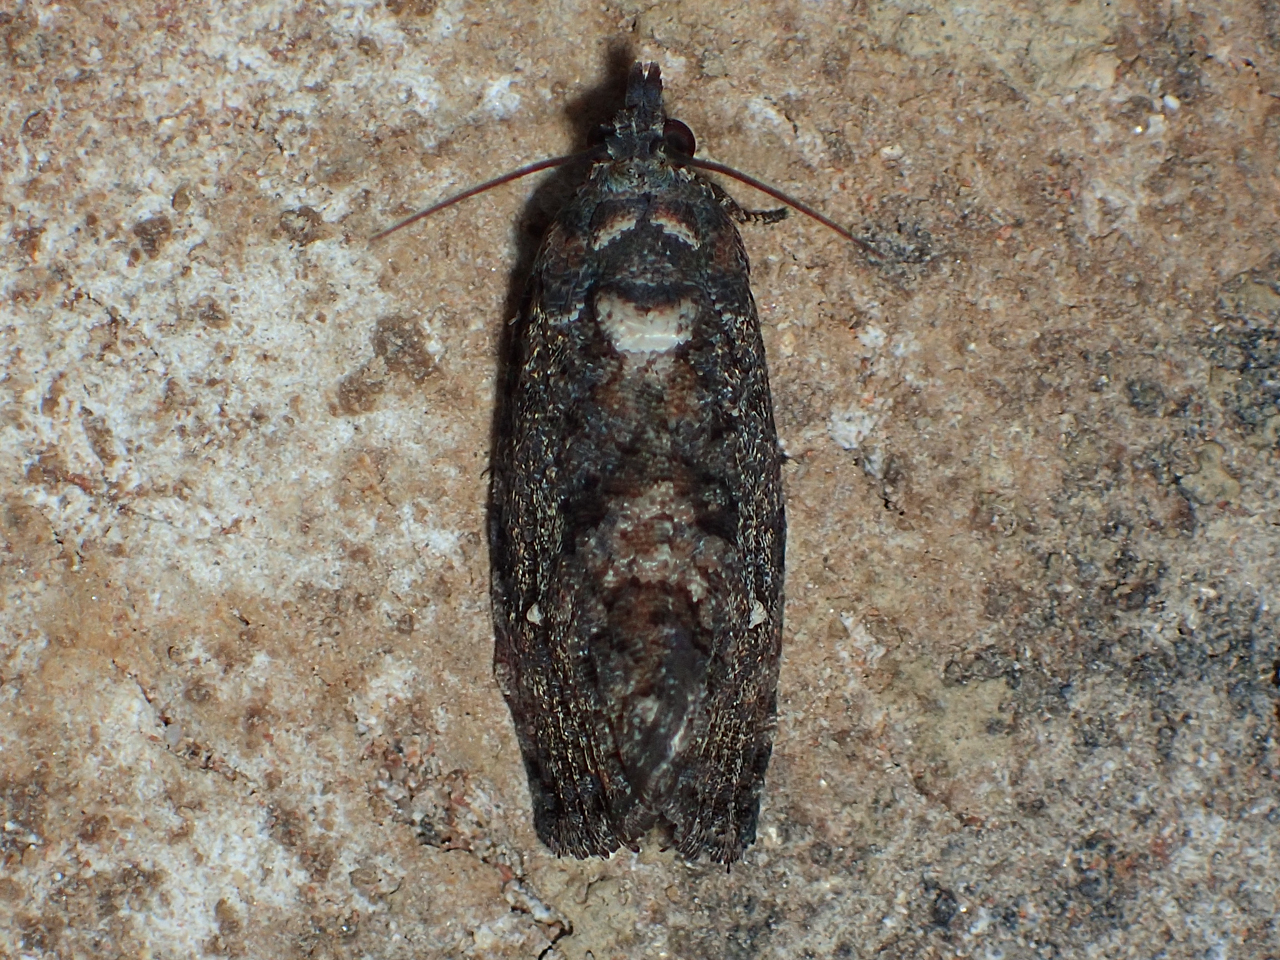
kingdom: Animalia
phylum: Arthropoda
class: Insecta
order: Lepidoptera
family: Tortricidae
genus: Gymnandrosoma
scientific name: Gymnandrosoma punctidiscanum
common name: Dotted ecdytolopha moth
